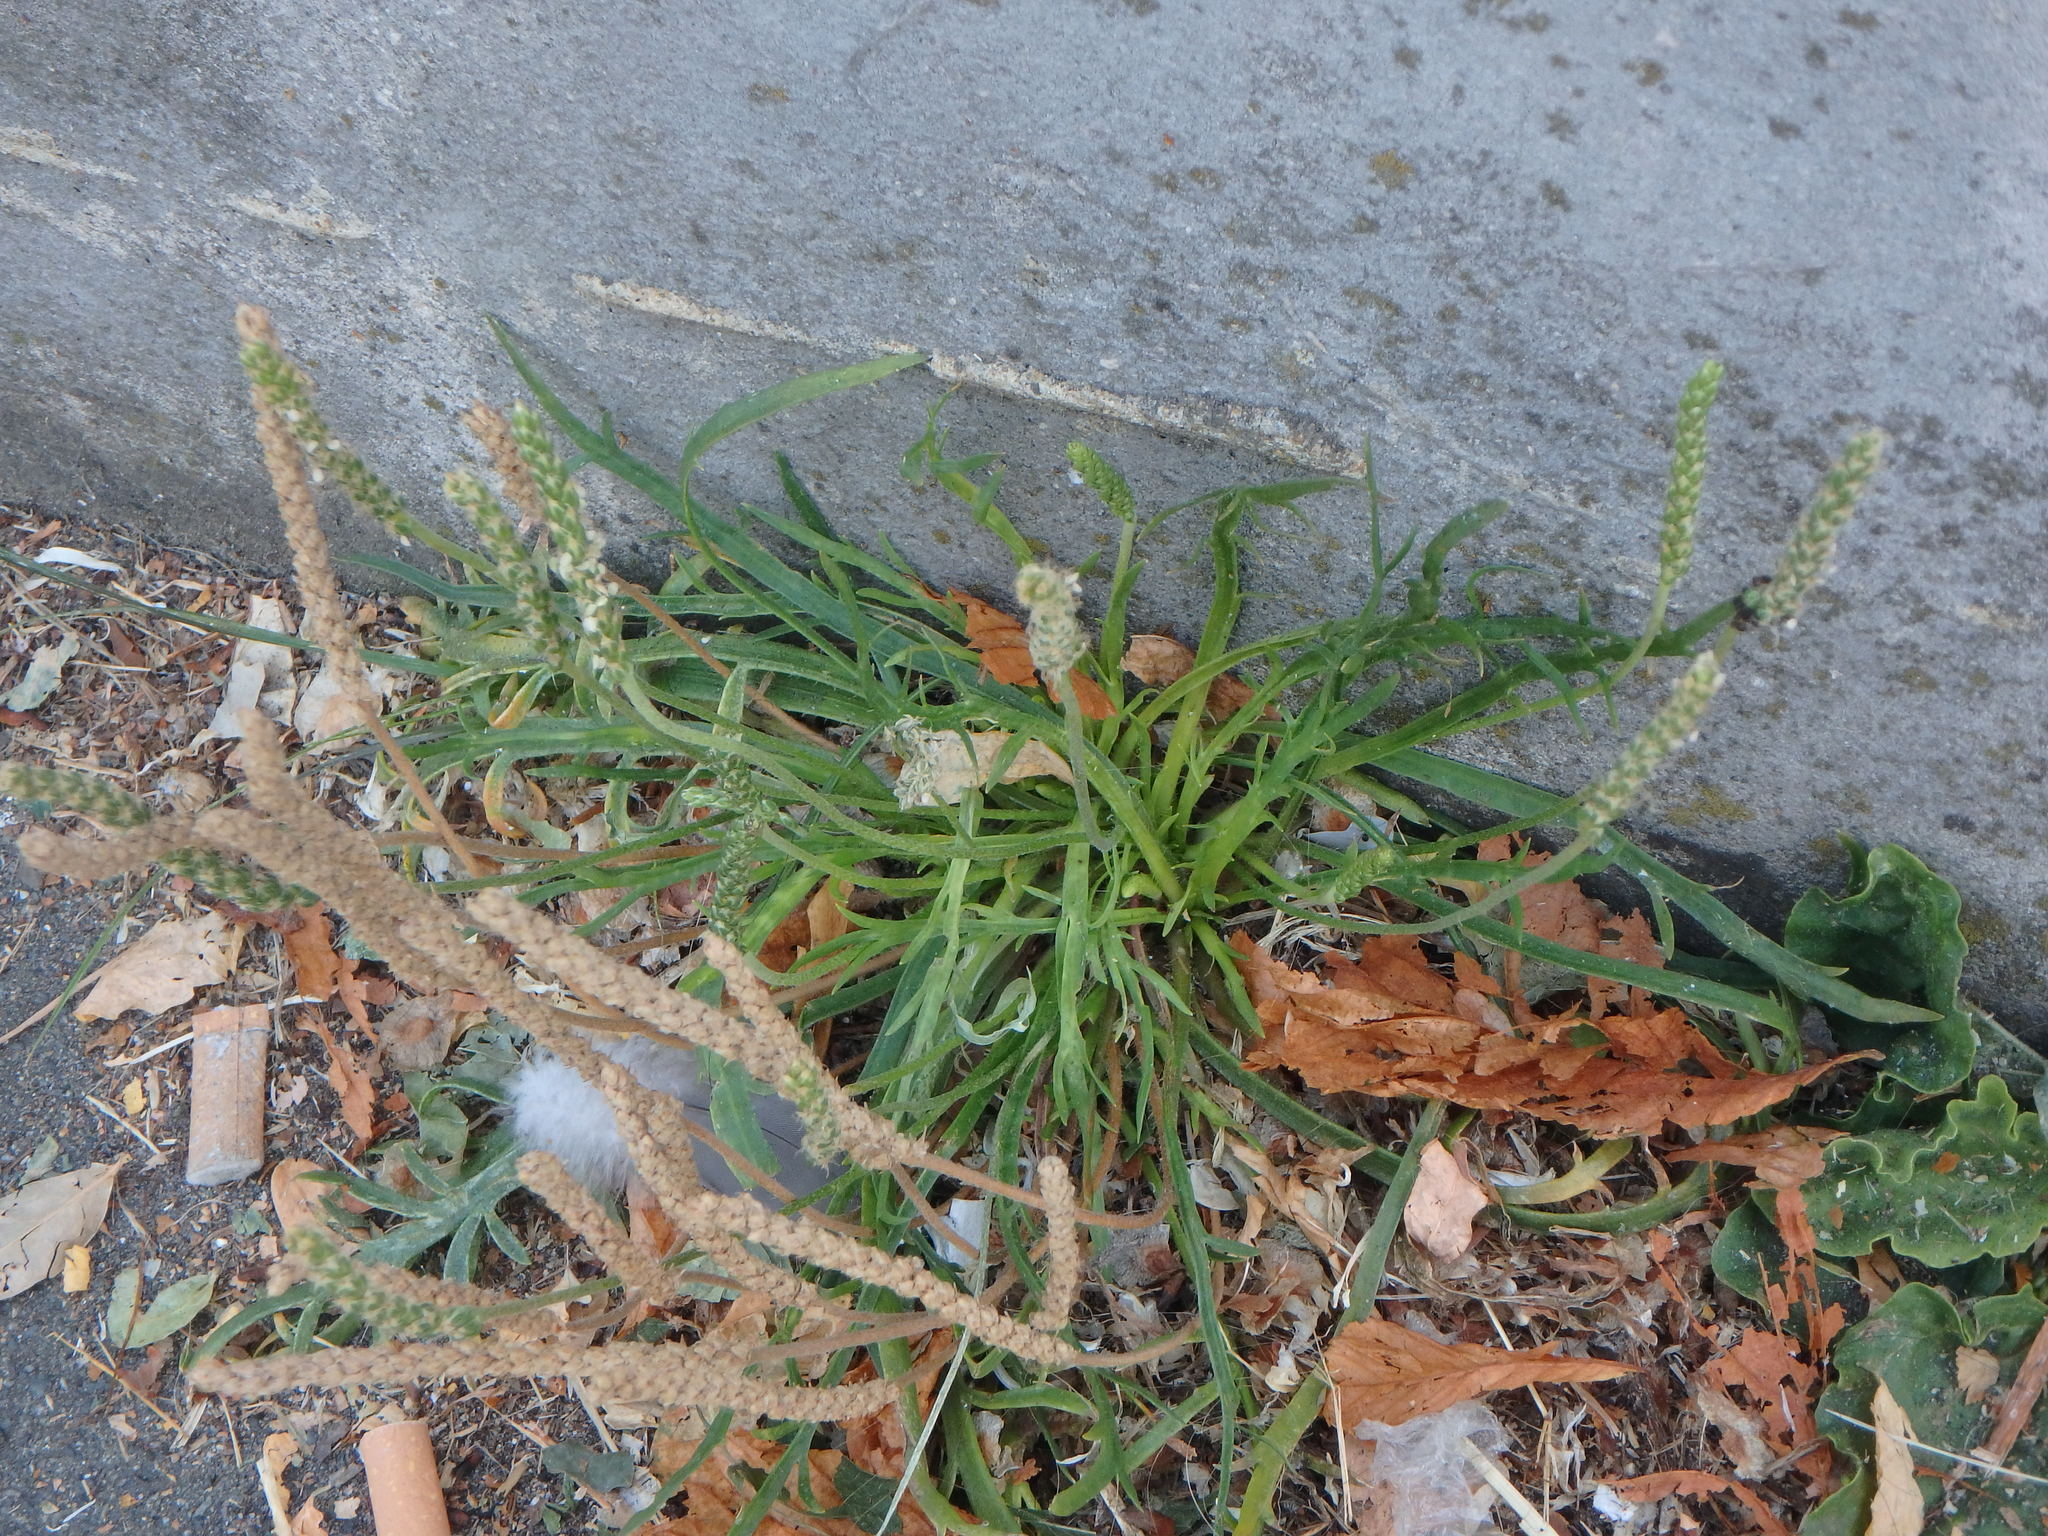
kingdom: Plantae
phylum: Tracheophyta
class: Magnoliopsida
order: Lamiales
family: Plantaginaceae
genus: Plantago
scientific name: Plantago coronopus
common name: Buck's-horn plantain
